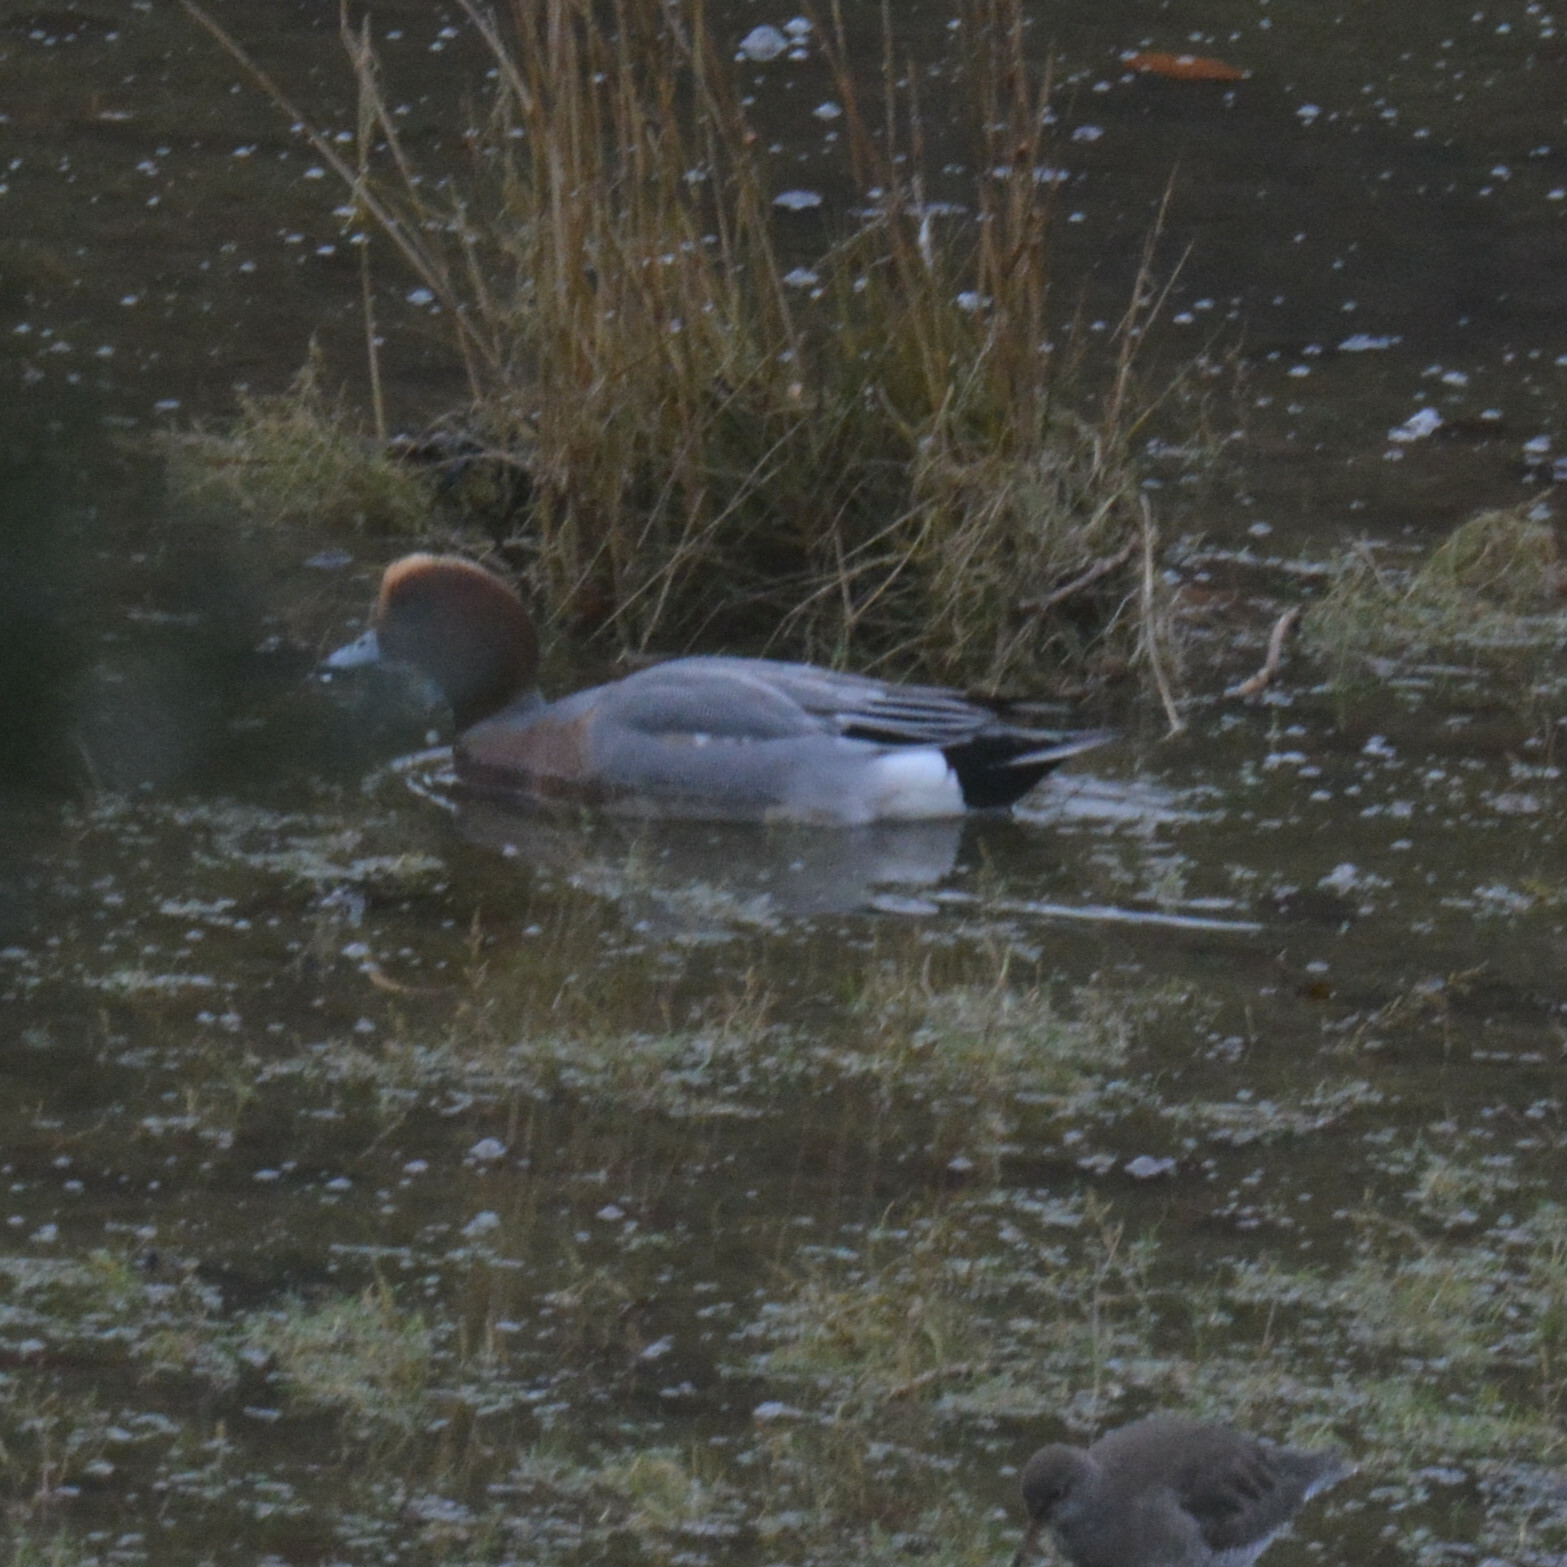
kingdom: Animalia
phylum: Chordata
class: Aves
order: Anseriformes
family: Anatidae
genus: Mareca
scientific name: Mareca penelope
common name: Eurasian wigeon
